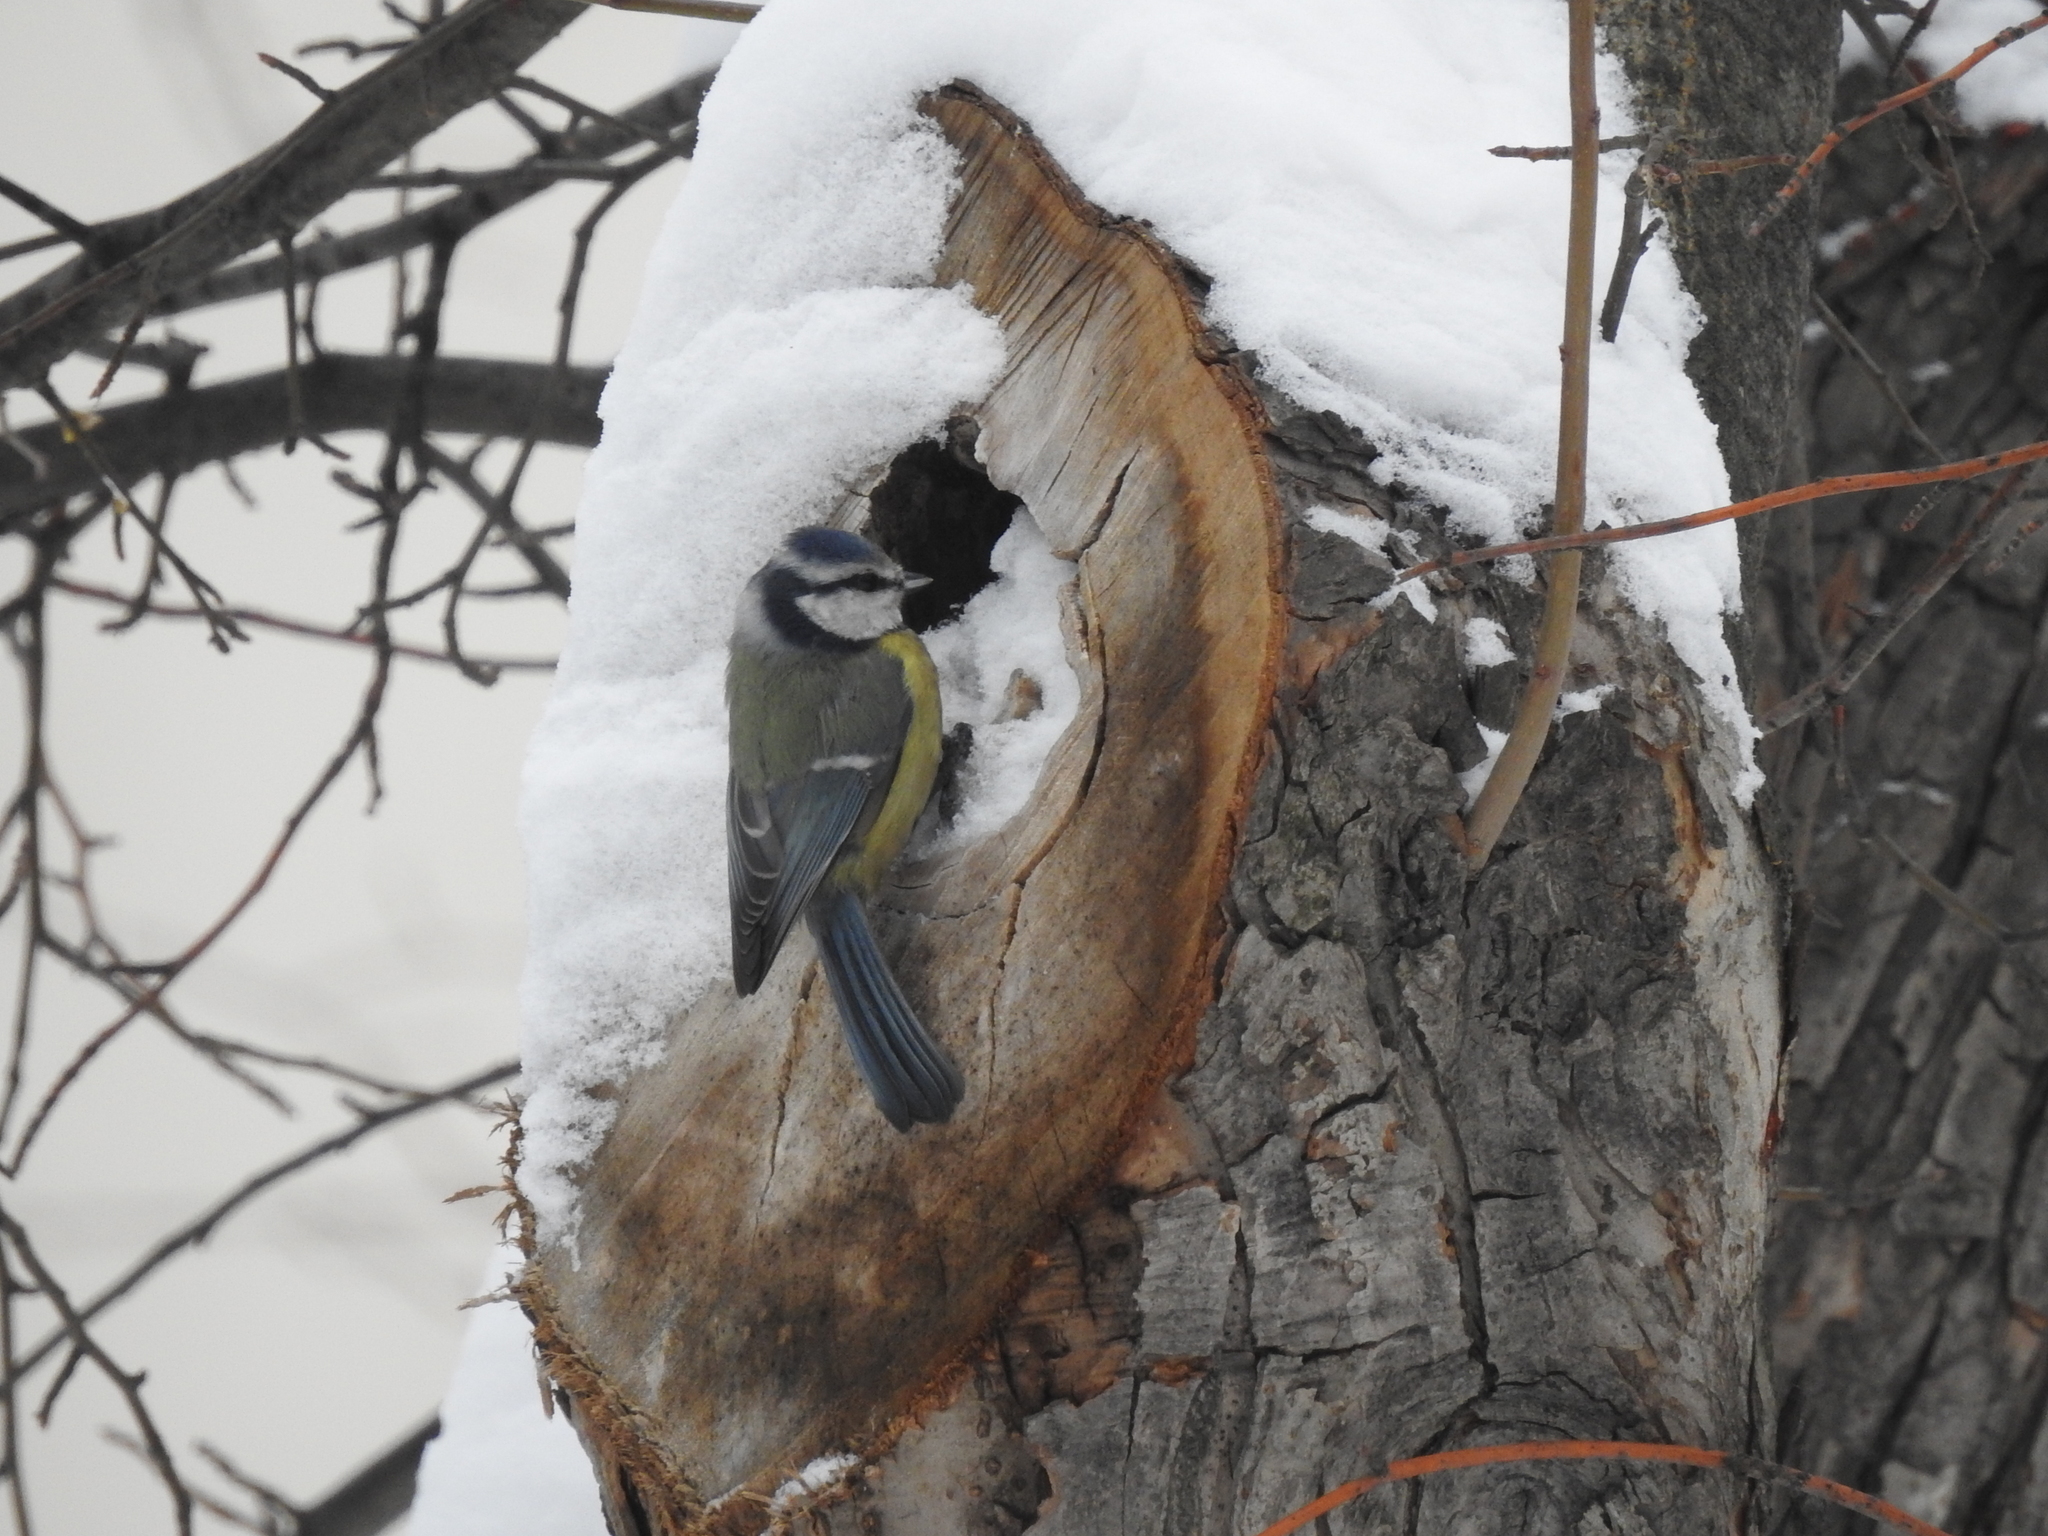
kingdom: Animalia
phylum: Chordata
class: Aves
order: Passeriformes
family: Paridae
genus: Cyanistes
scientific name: Cyanistes caeruleus
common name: Eurasian blue tit
